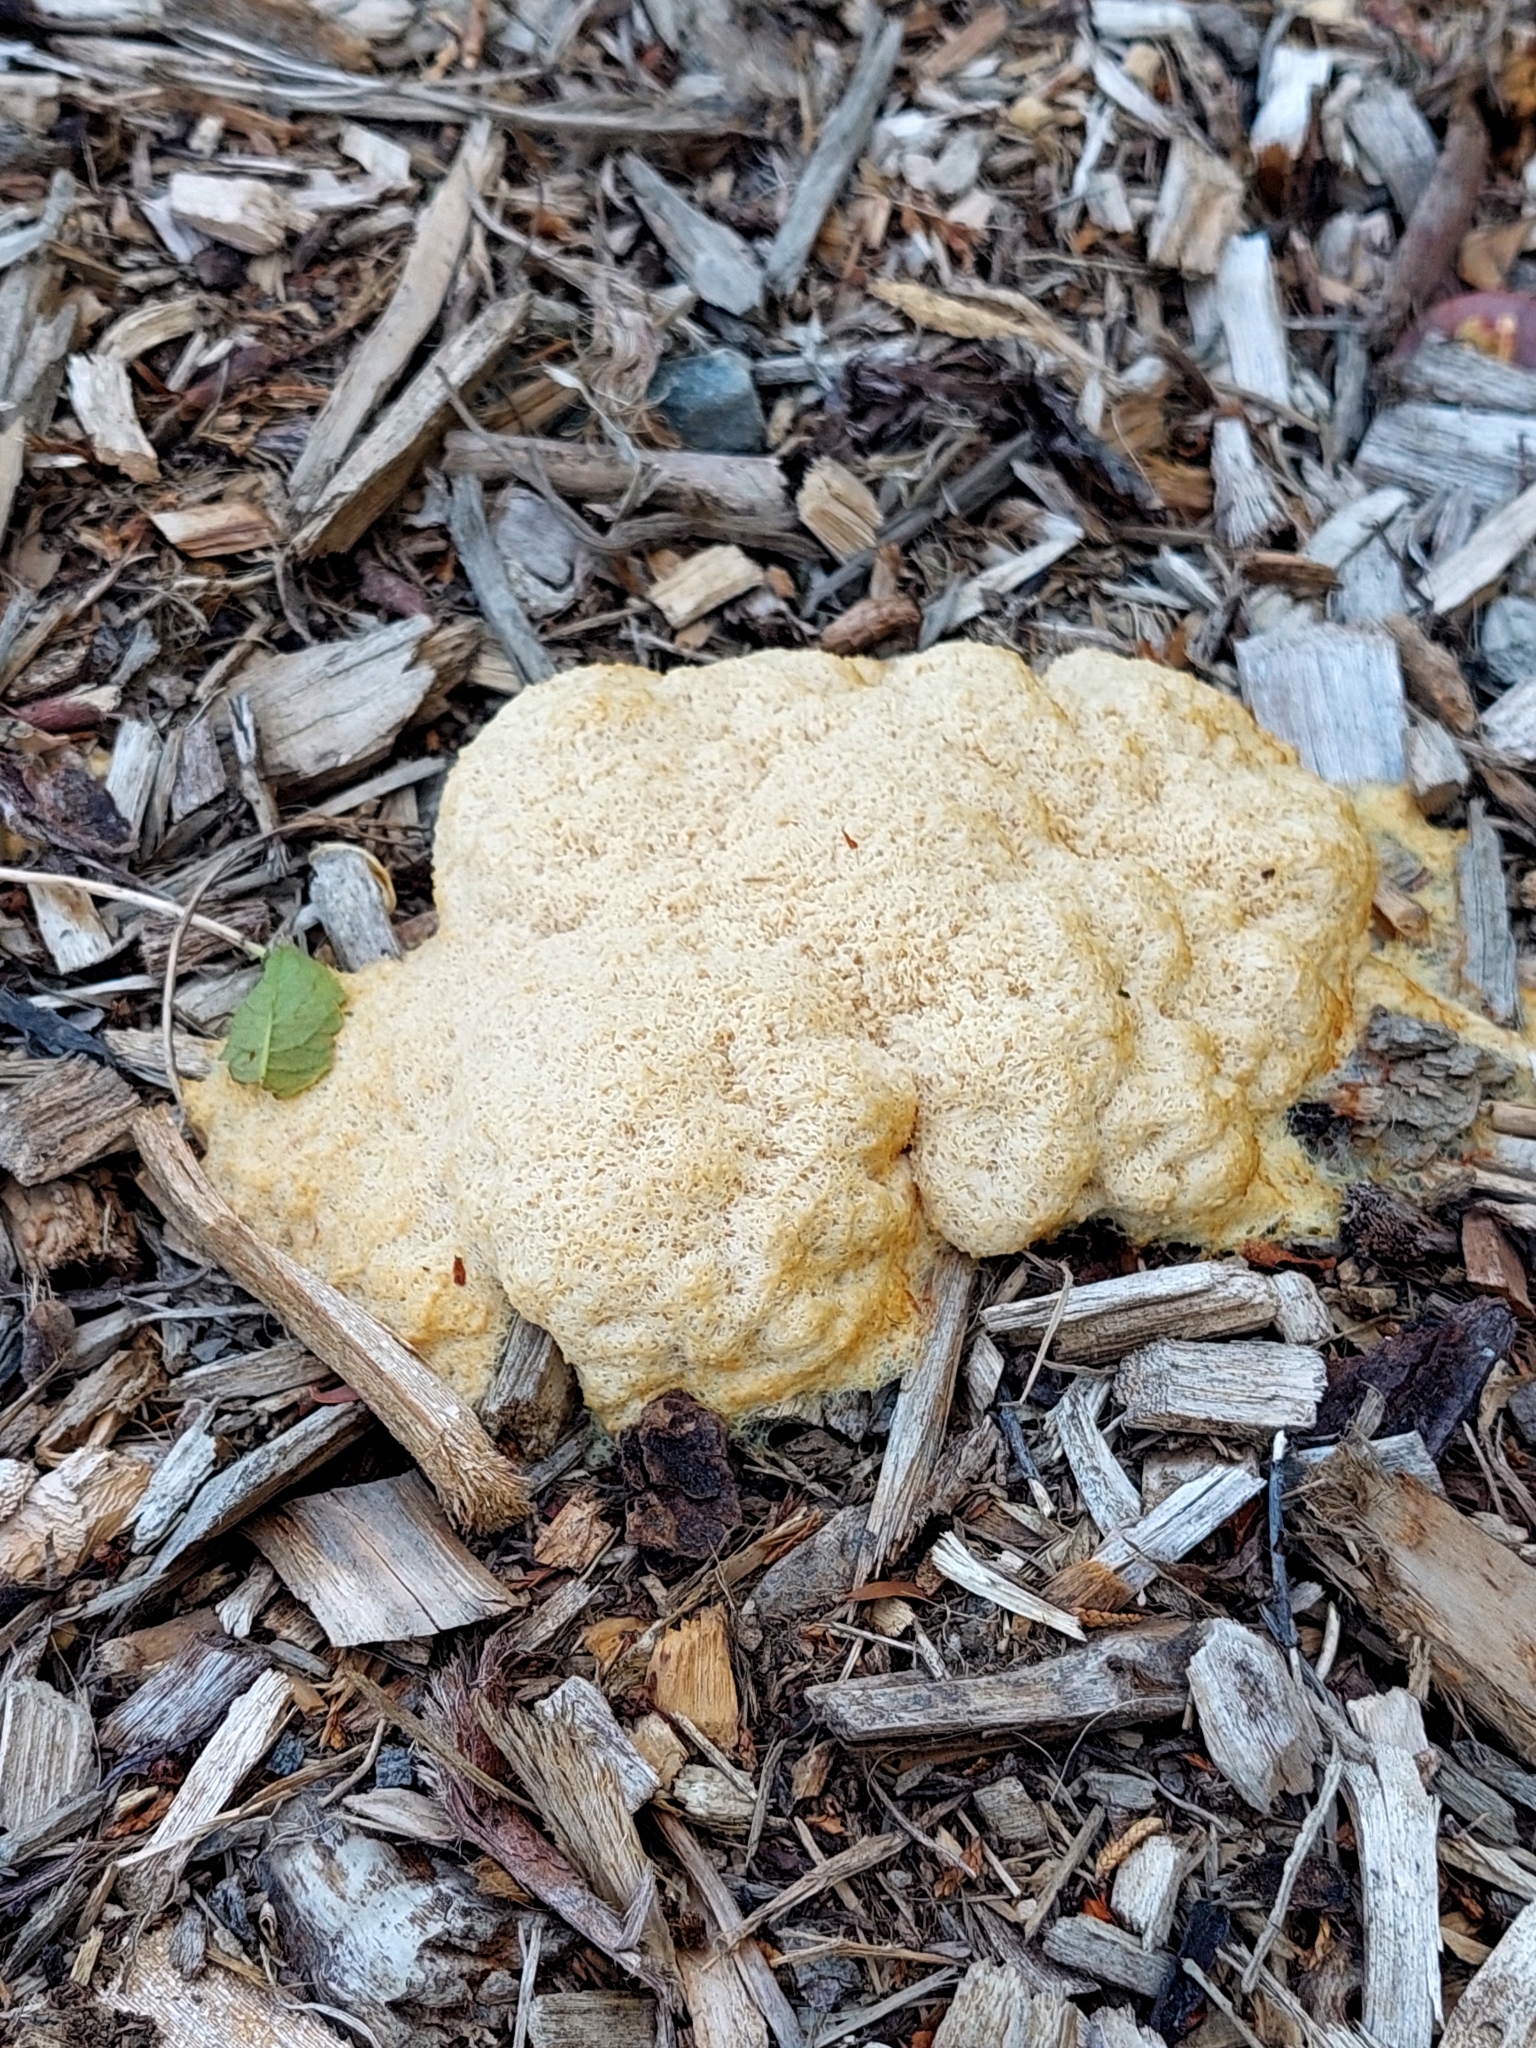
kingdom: Protozoa
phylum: Mycetozoa
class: Myxomycetes
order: Physarales
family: Physaraceae
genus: Fuligo
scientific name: Fuligo septica
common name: Dog vomit slime mold
